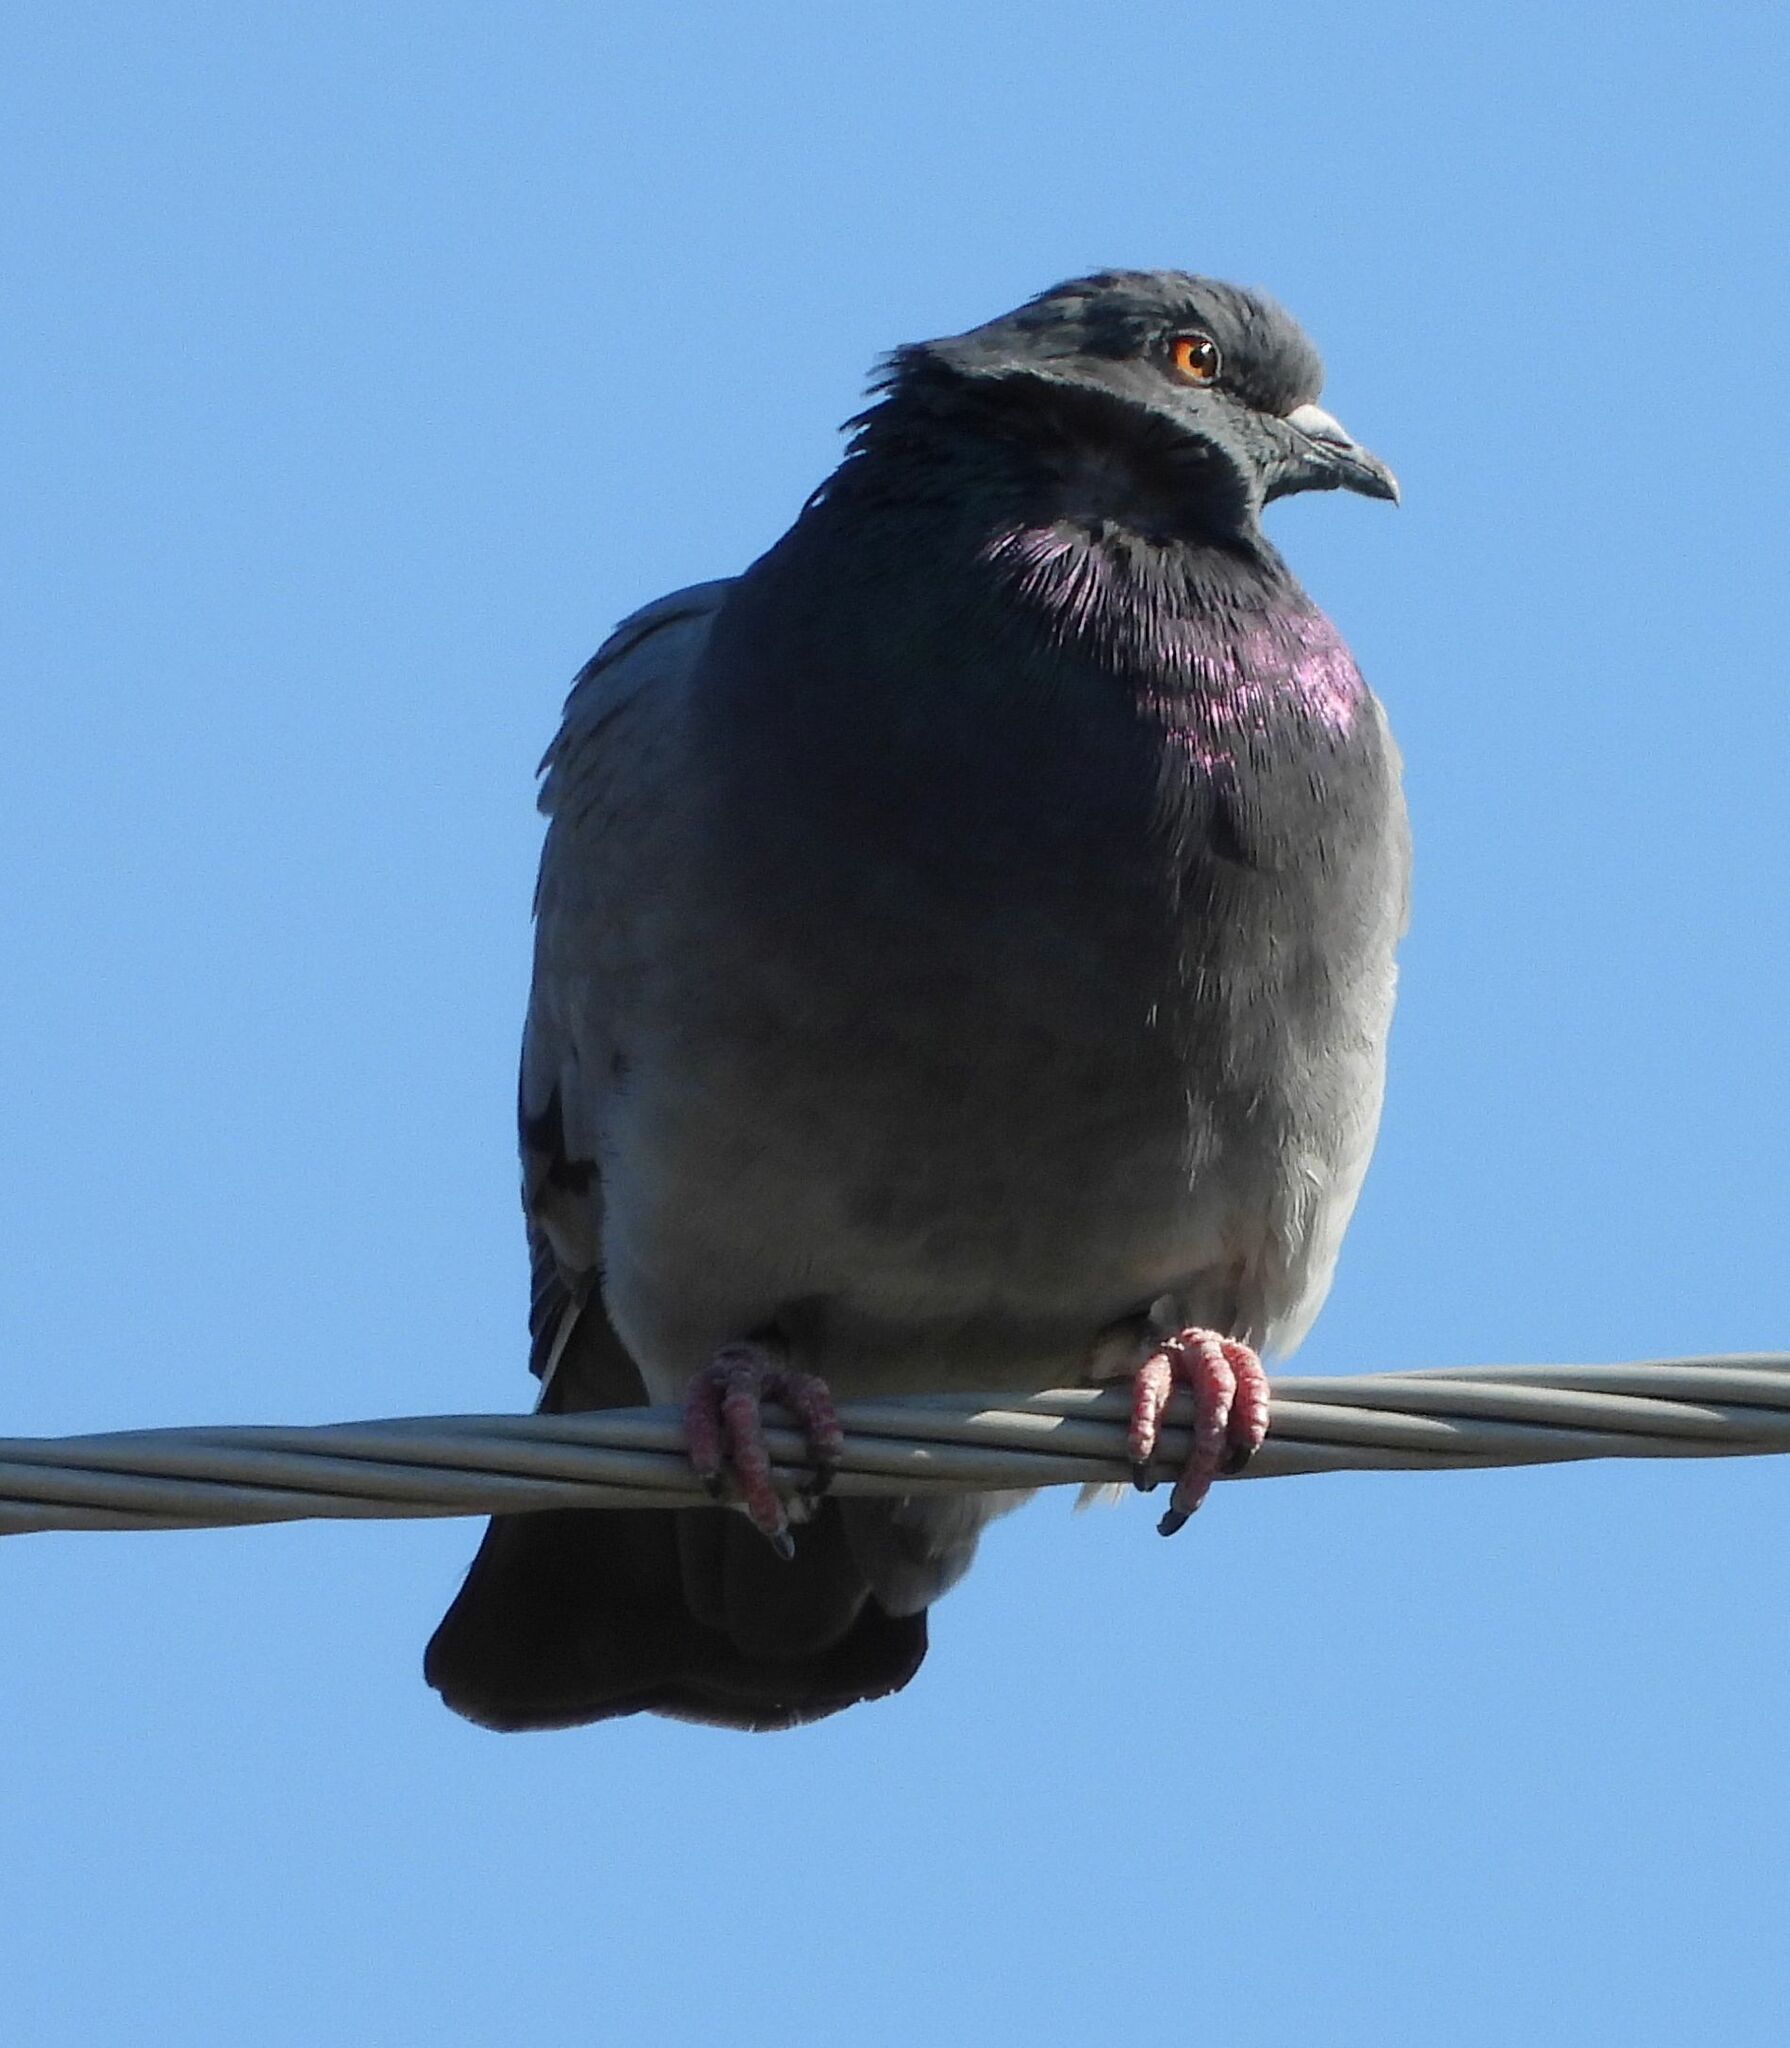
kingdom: Animalia
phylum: Chordata
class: Aves
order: Columbiformes
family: Columbidae
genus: Columba
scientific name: Columba livia
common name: Rock pigeon
